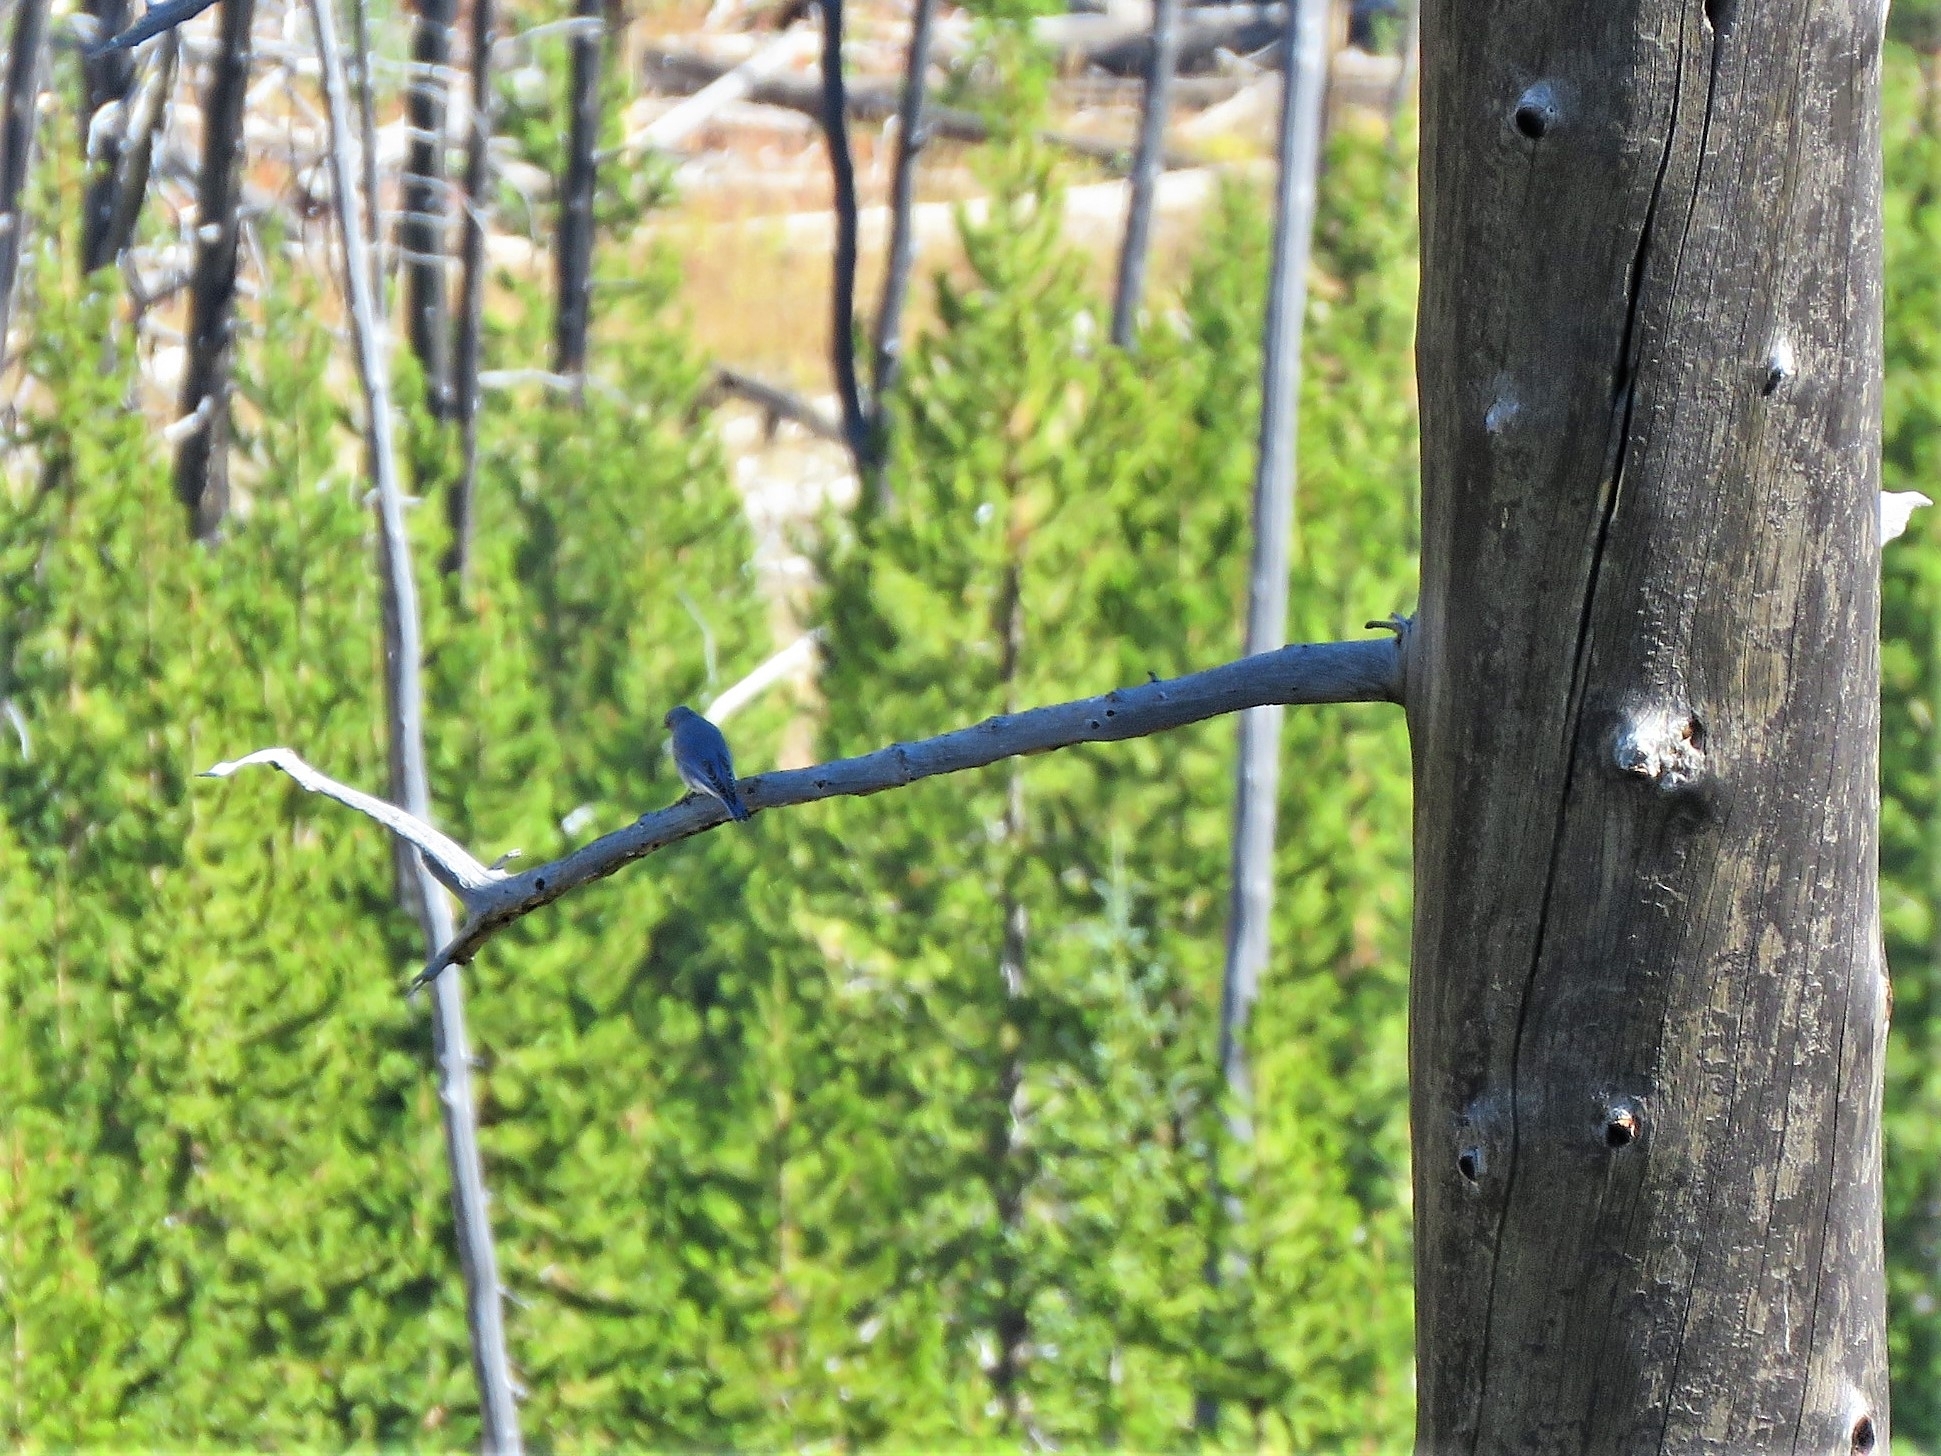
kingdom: Animalia
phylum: Chordata
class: Aves
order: Passeriformes
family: Turdidae
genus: Sialia
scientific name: Sialia currucoides
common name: Mountain bluebird
